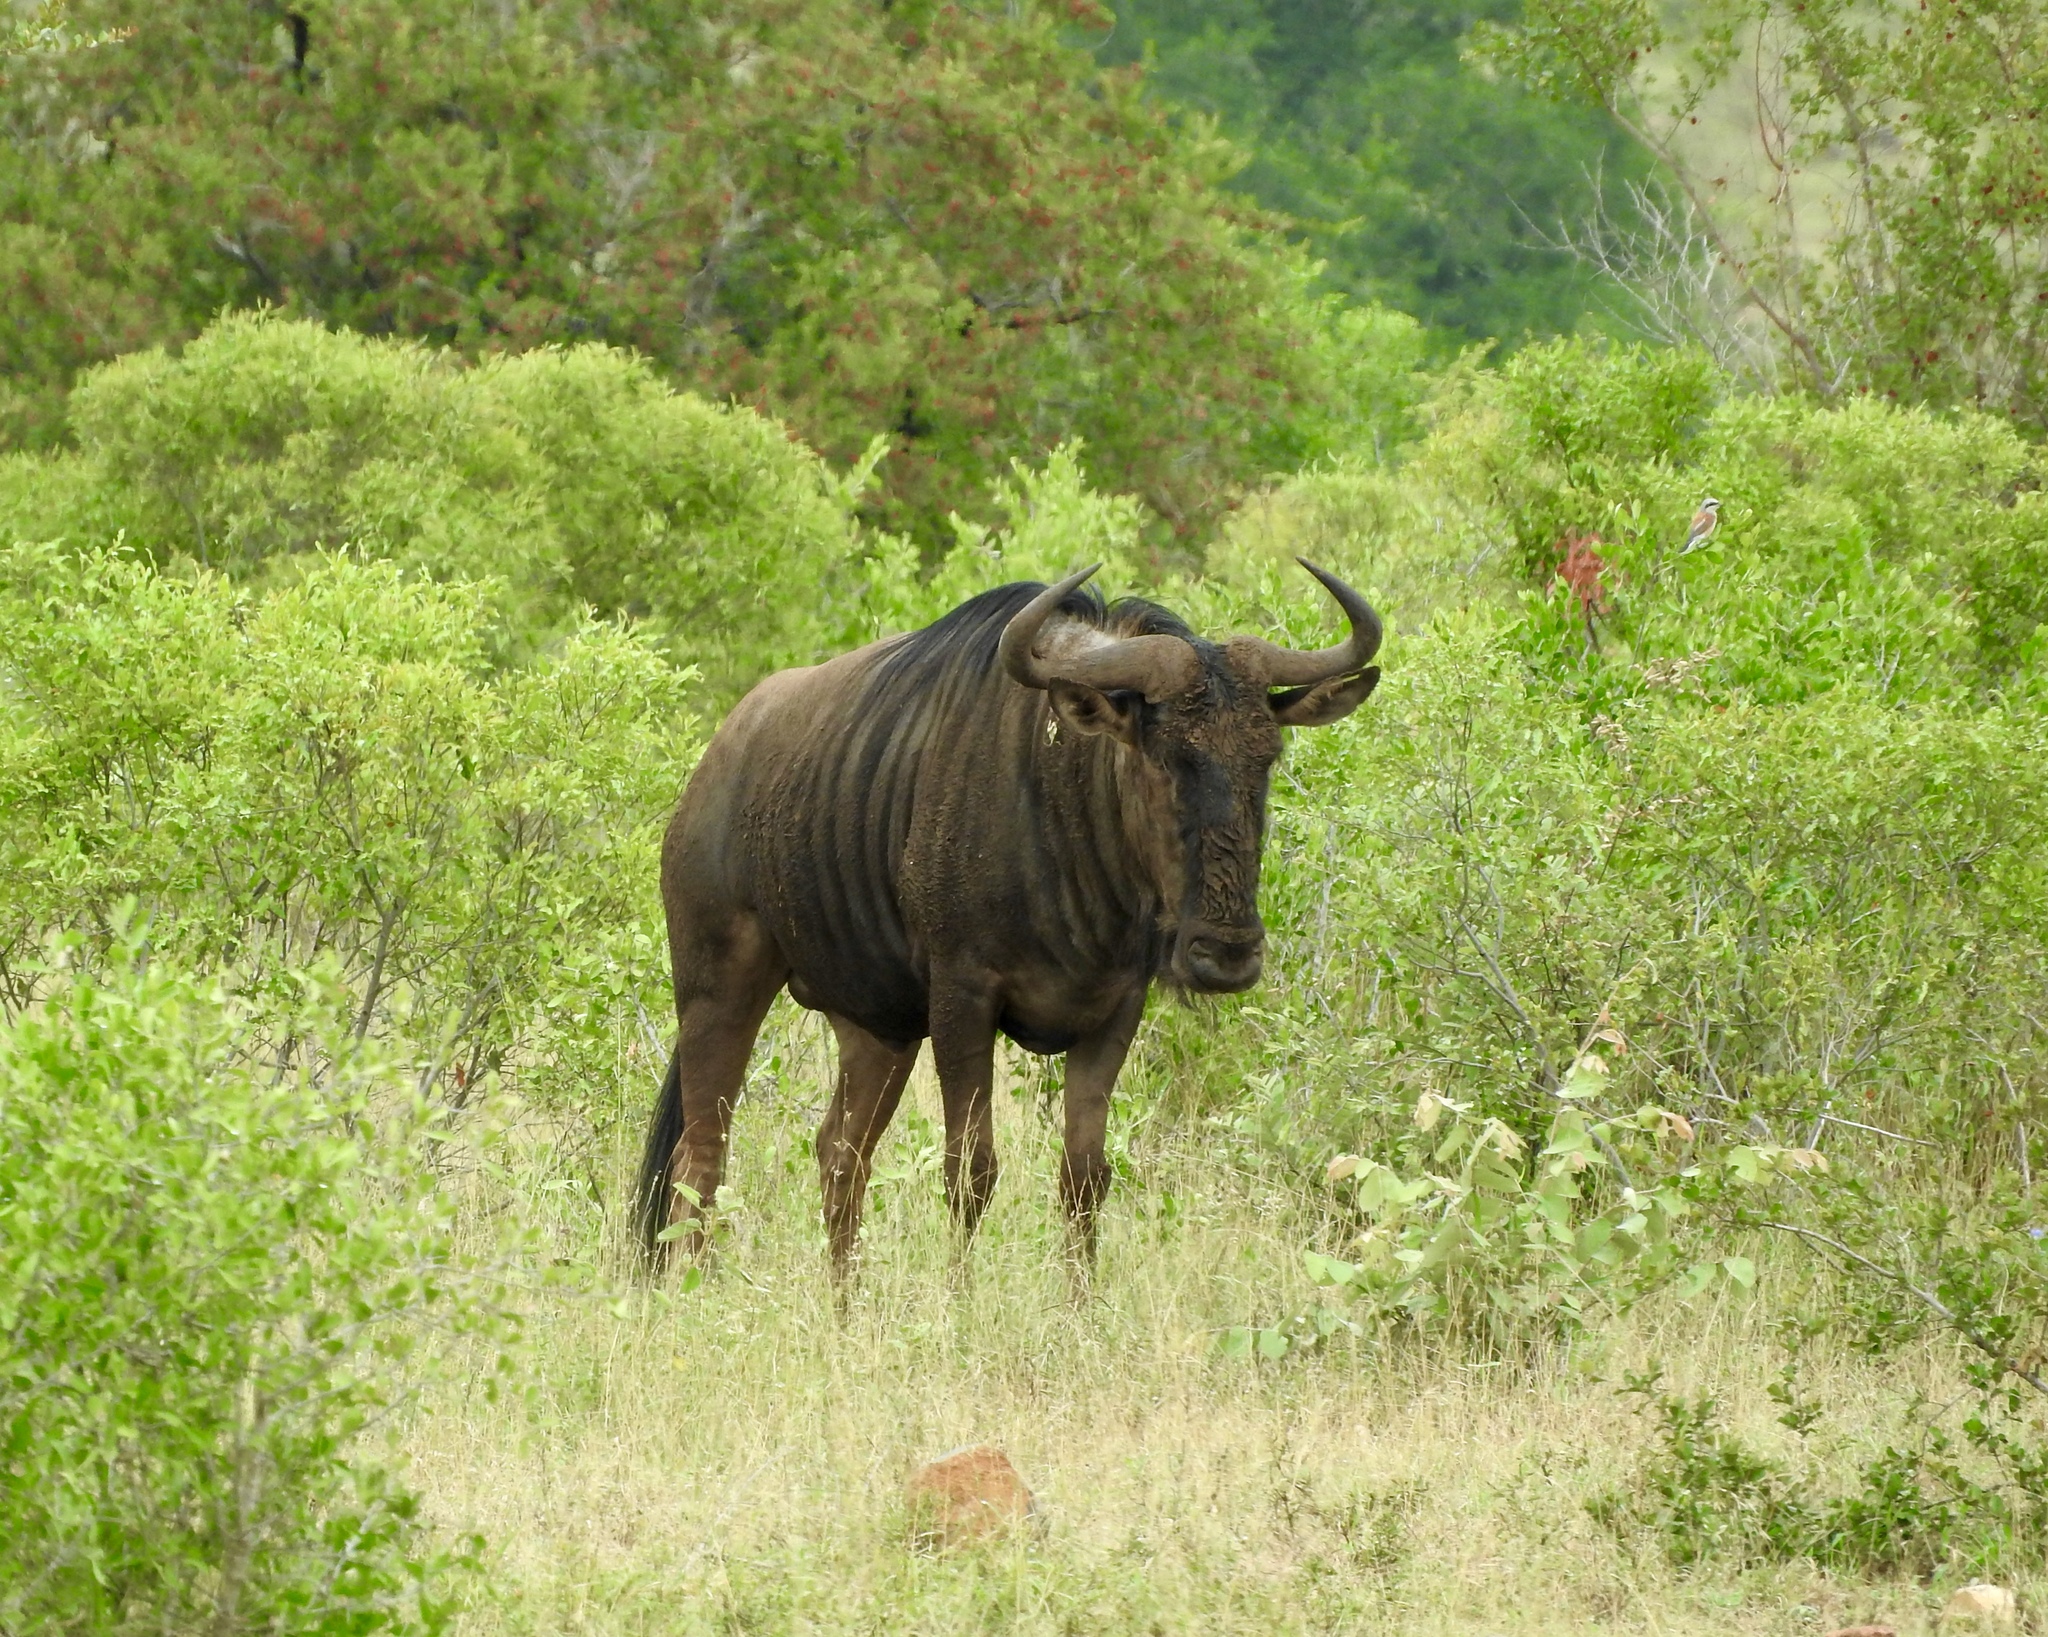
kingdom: Animalia
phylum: Chordata
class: Mammalia
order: Artiodactyla
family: Bovidae
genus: Connochaetes
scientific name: Connochaetes taurinus
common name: Blue wildebeest
